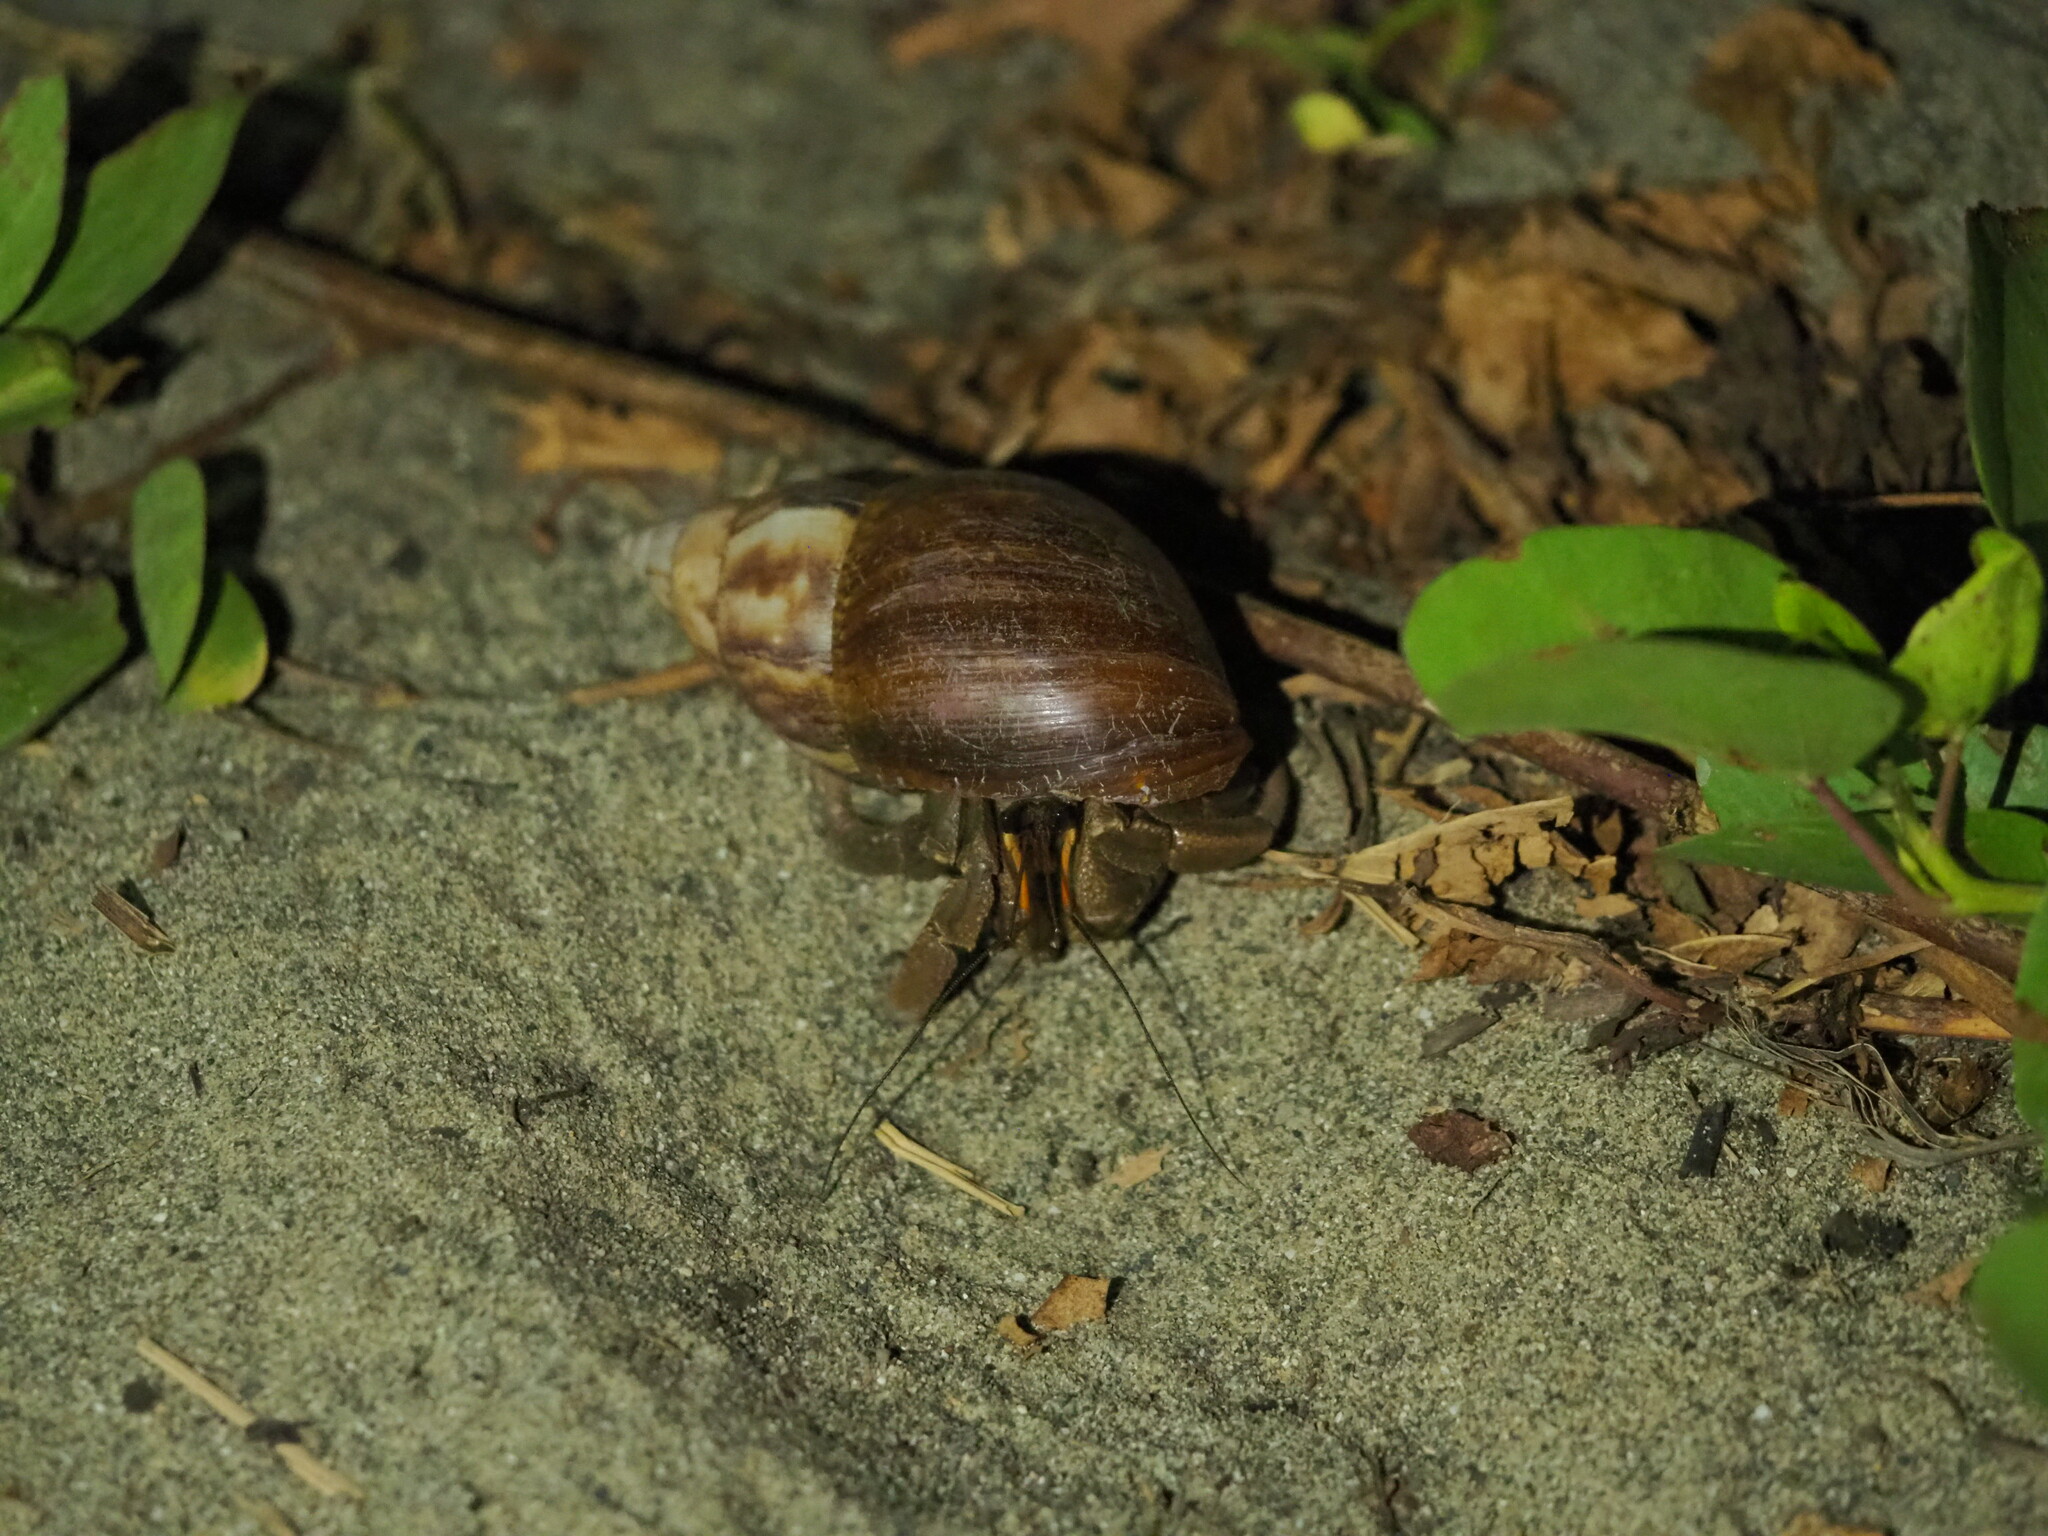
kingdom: Animalia
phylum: Arthropoda
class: Malacostraca
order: Decapoda
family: Coenobitidae
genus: Coenobita
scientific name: Coenobita cavipes
